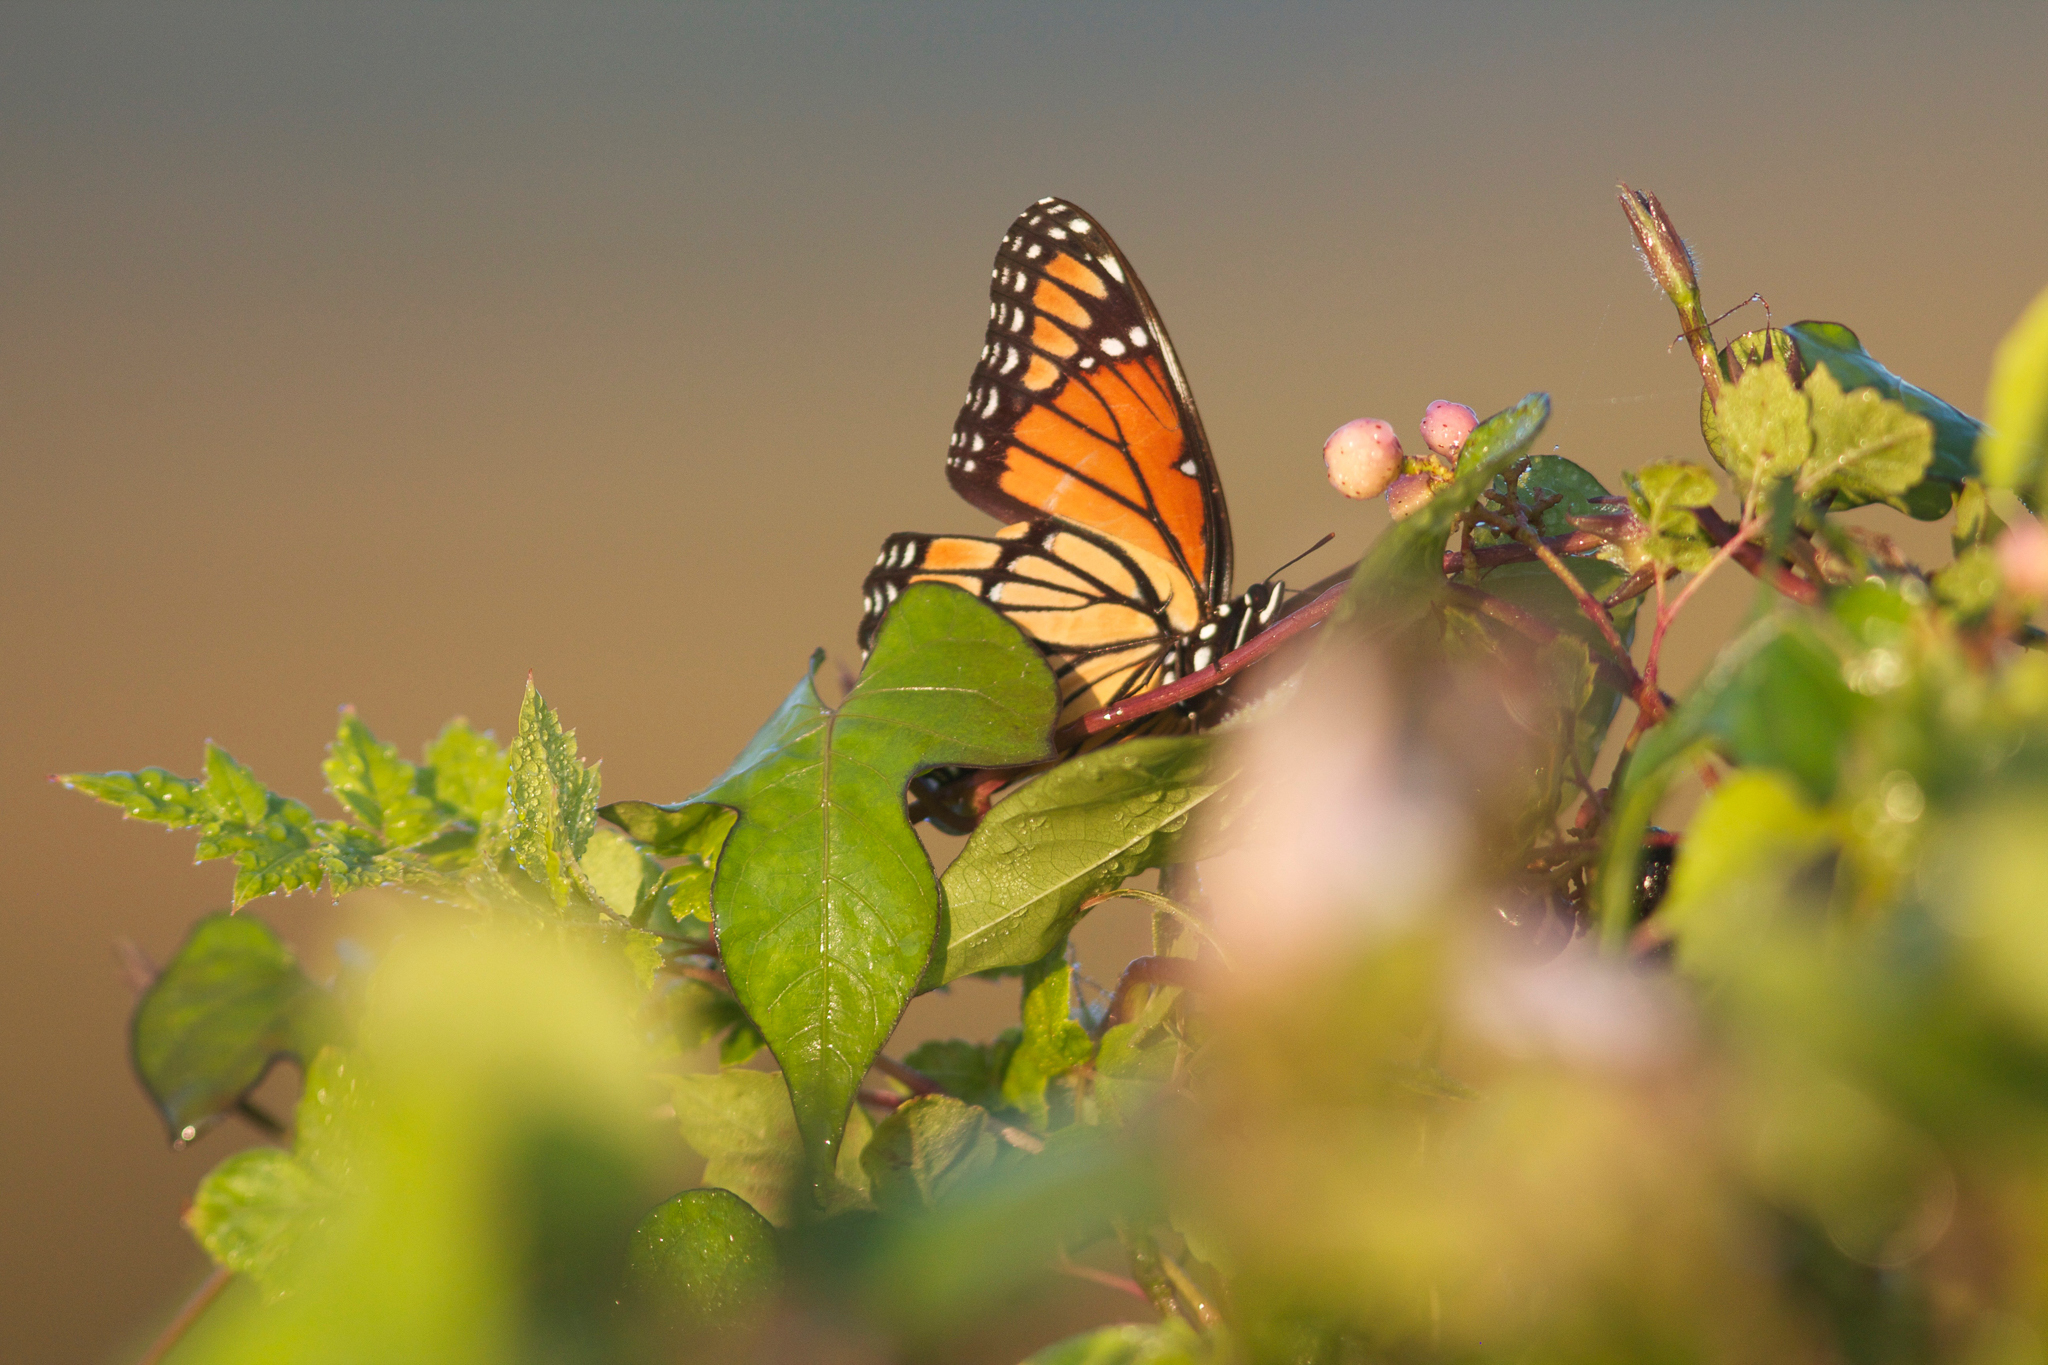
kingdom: Animalia
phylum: Arthropoda
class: Insecta
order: Lepidoptera
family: Nymphalidae
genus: Limenitis
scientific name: Limenitis archippus
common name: Viceroy
